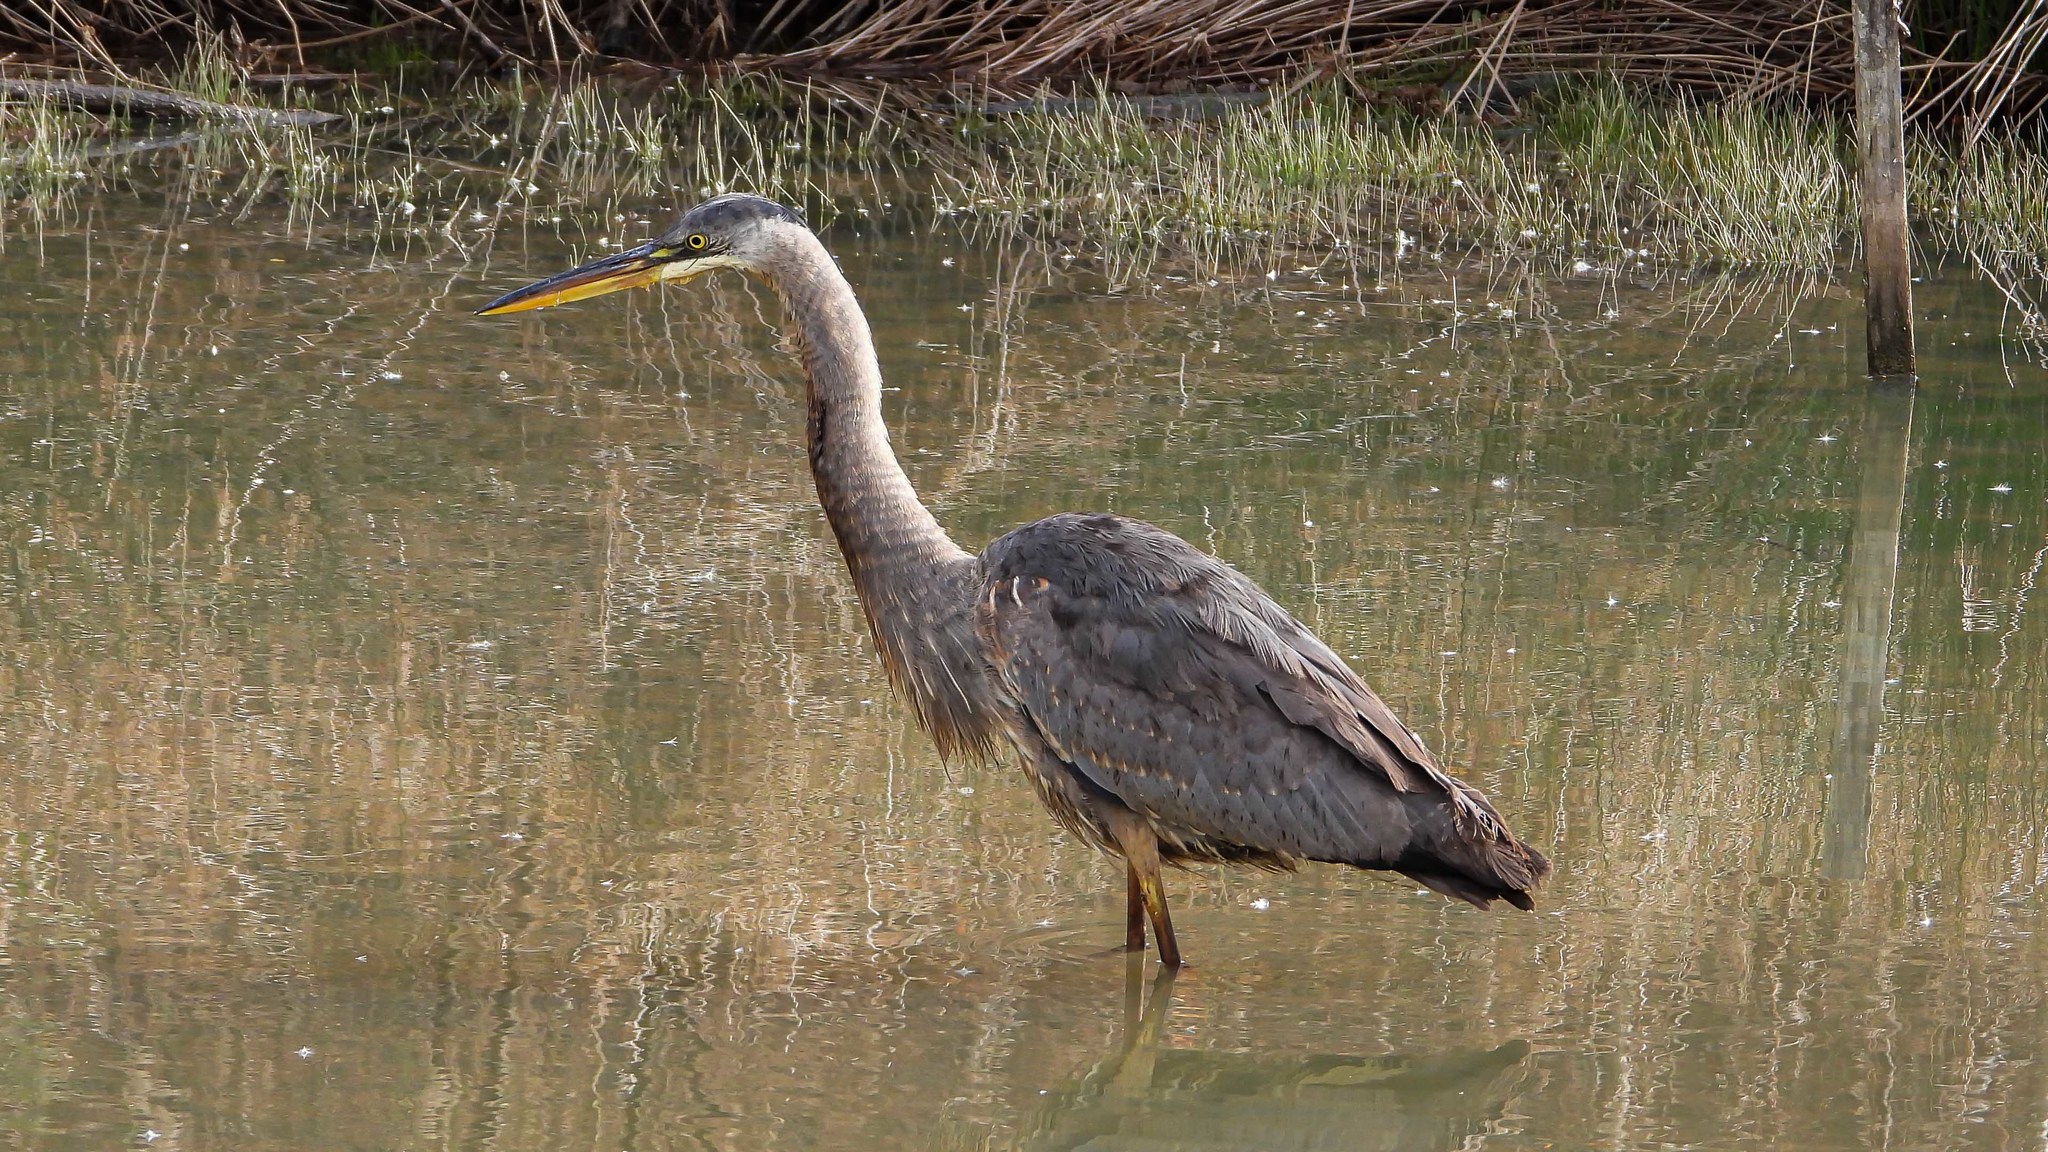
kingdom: Animalia
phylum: Chordata
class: Aves
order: Pelecaniformes
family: Ardeidae
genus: Ardea
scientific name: Ardea herodias
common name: Great blue heron
